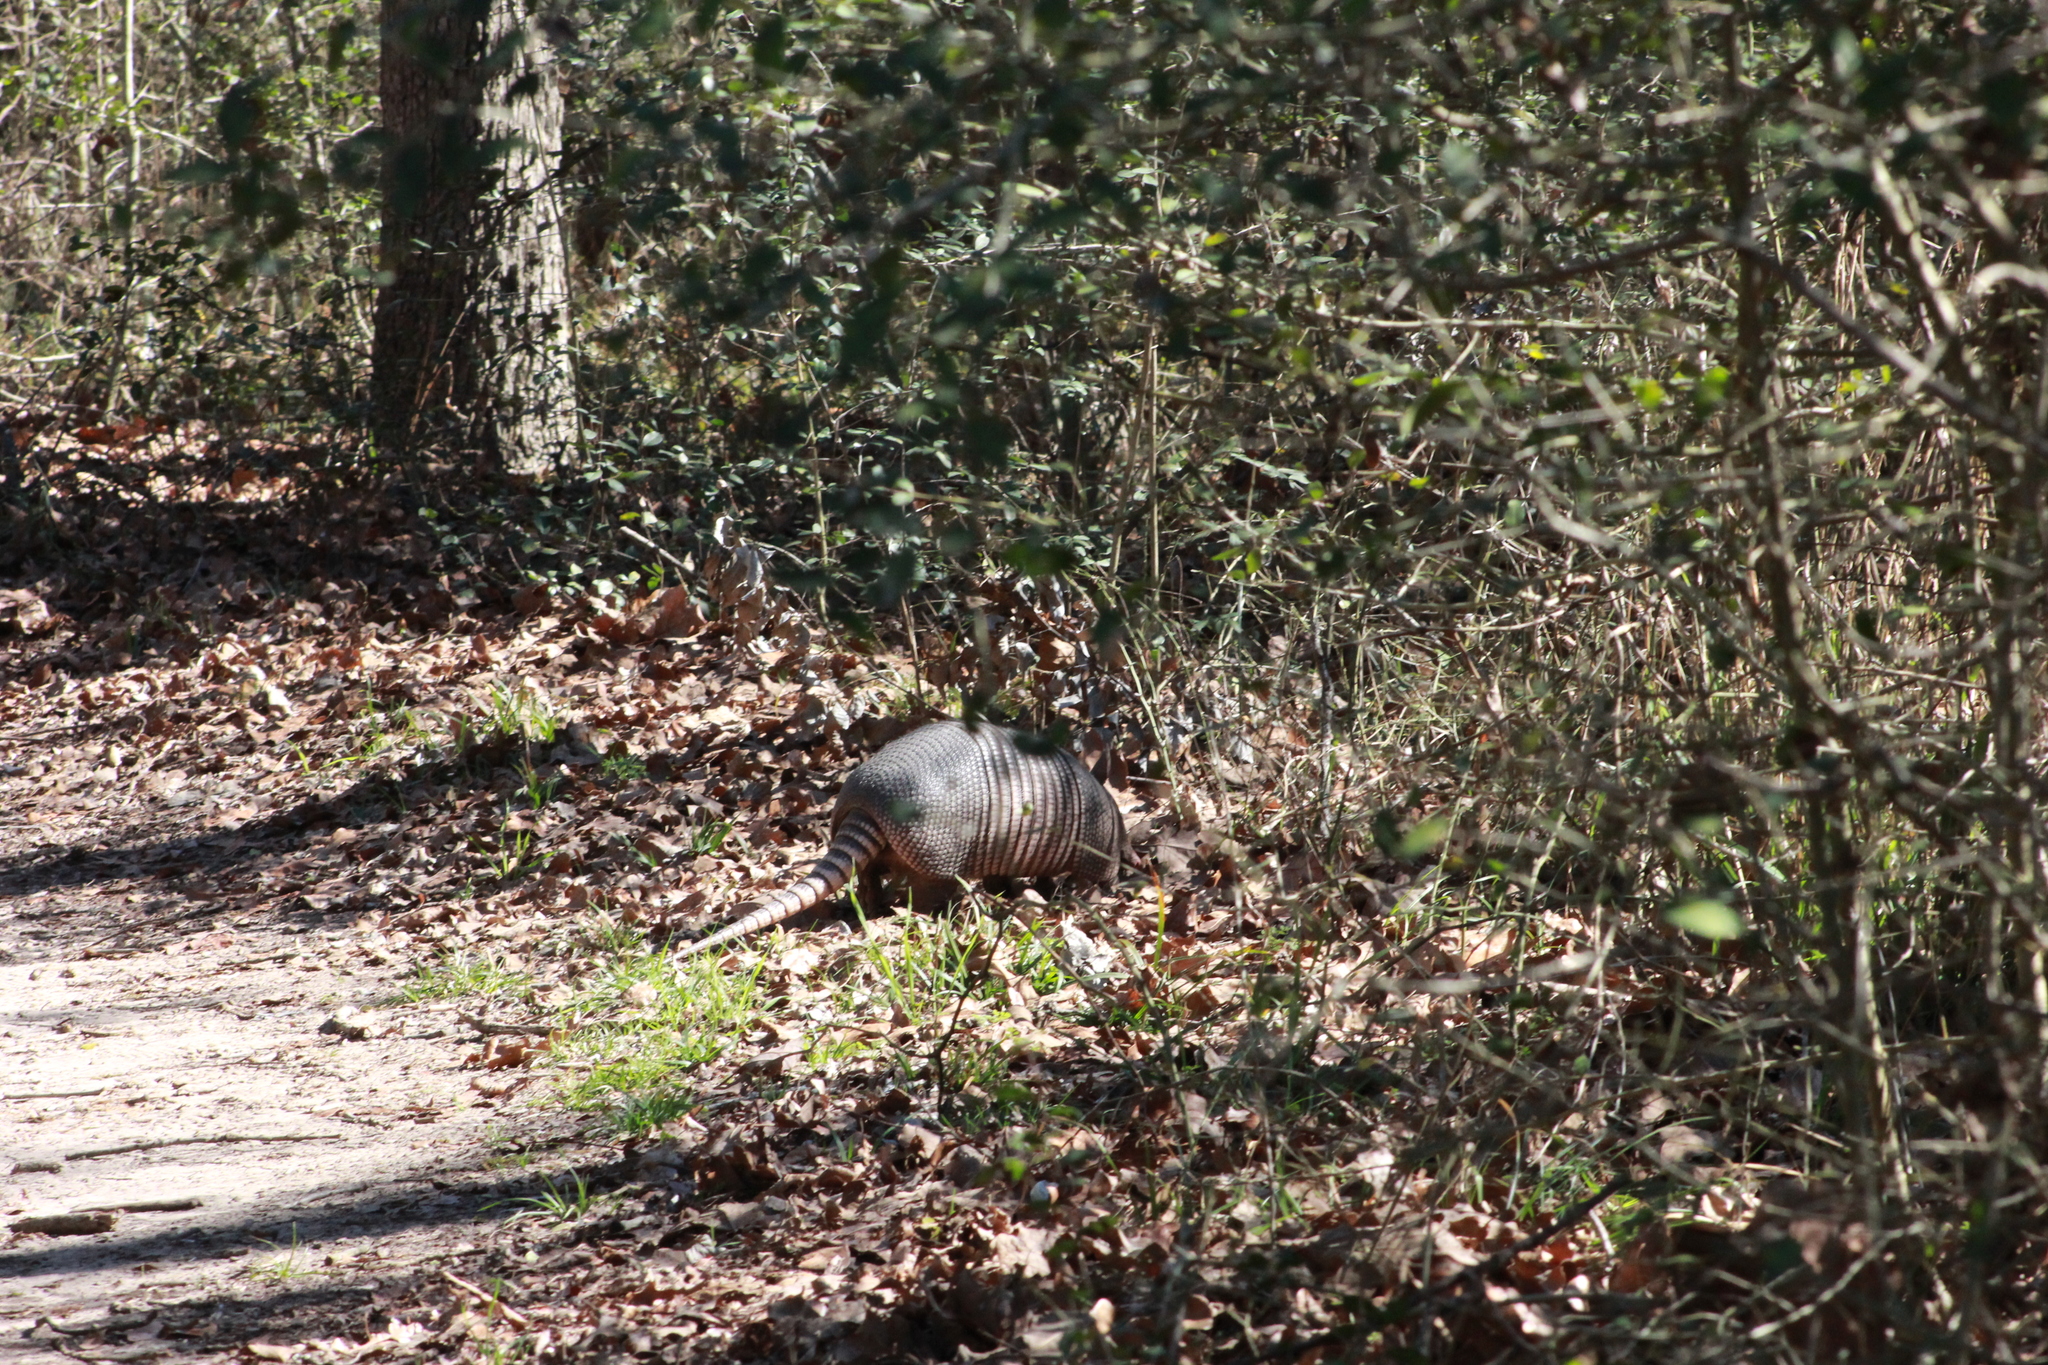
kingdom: Animalia
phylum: Chordata
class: Mammalia
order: Cingulata
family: Dasypodidae
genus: Dasypus
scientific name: Dasypus novemcinctus
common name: Nine-banded armadillo
